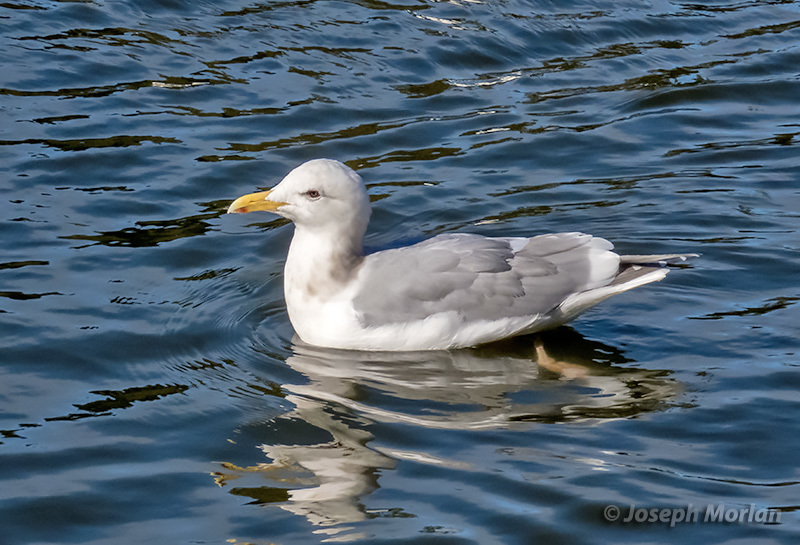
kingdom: Animalia
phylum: Chordata
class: Aves
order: Charadriiformes
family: Laridae
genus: Larus
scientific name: Larus
